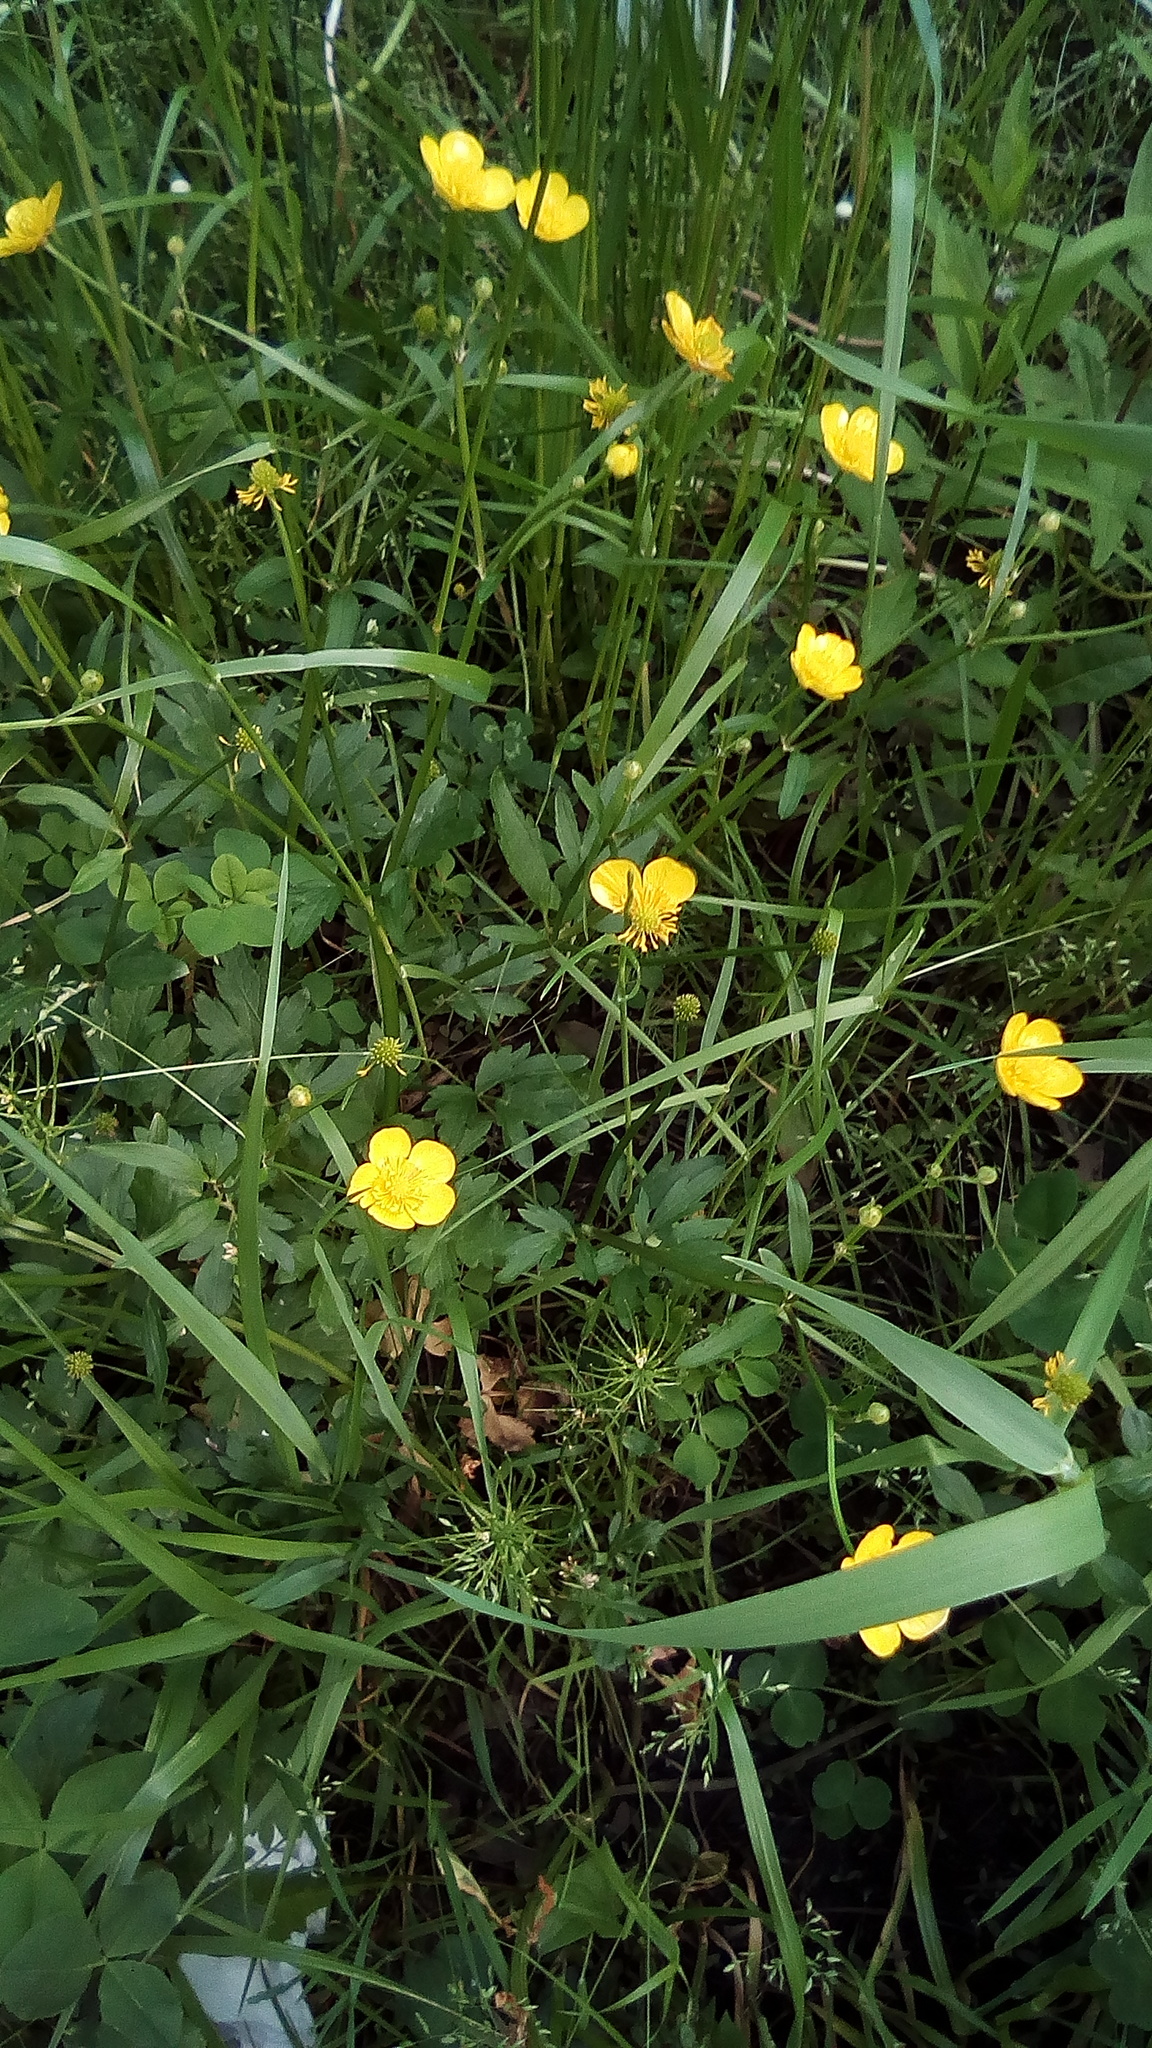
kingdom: Plantae
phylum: Tracheophyta
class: Magnoliopsida
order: Ranunculales
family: Ranunculaceae
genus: Ranunculus
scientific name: Ranunculus repens
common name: Creeping buttercup
